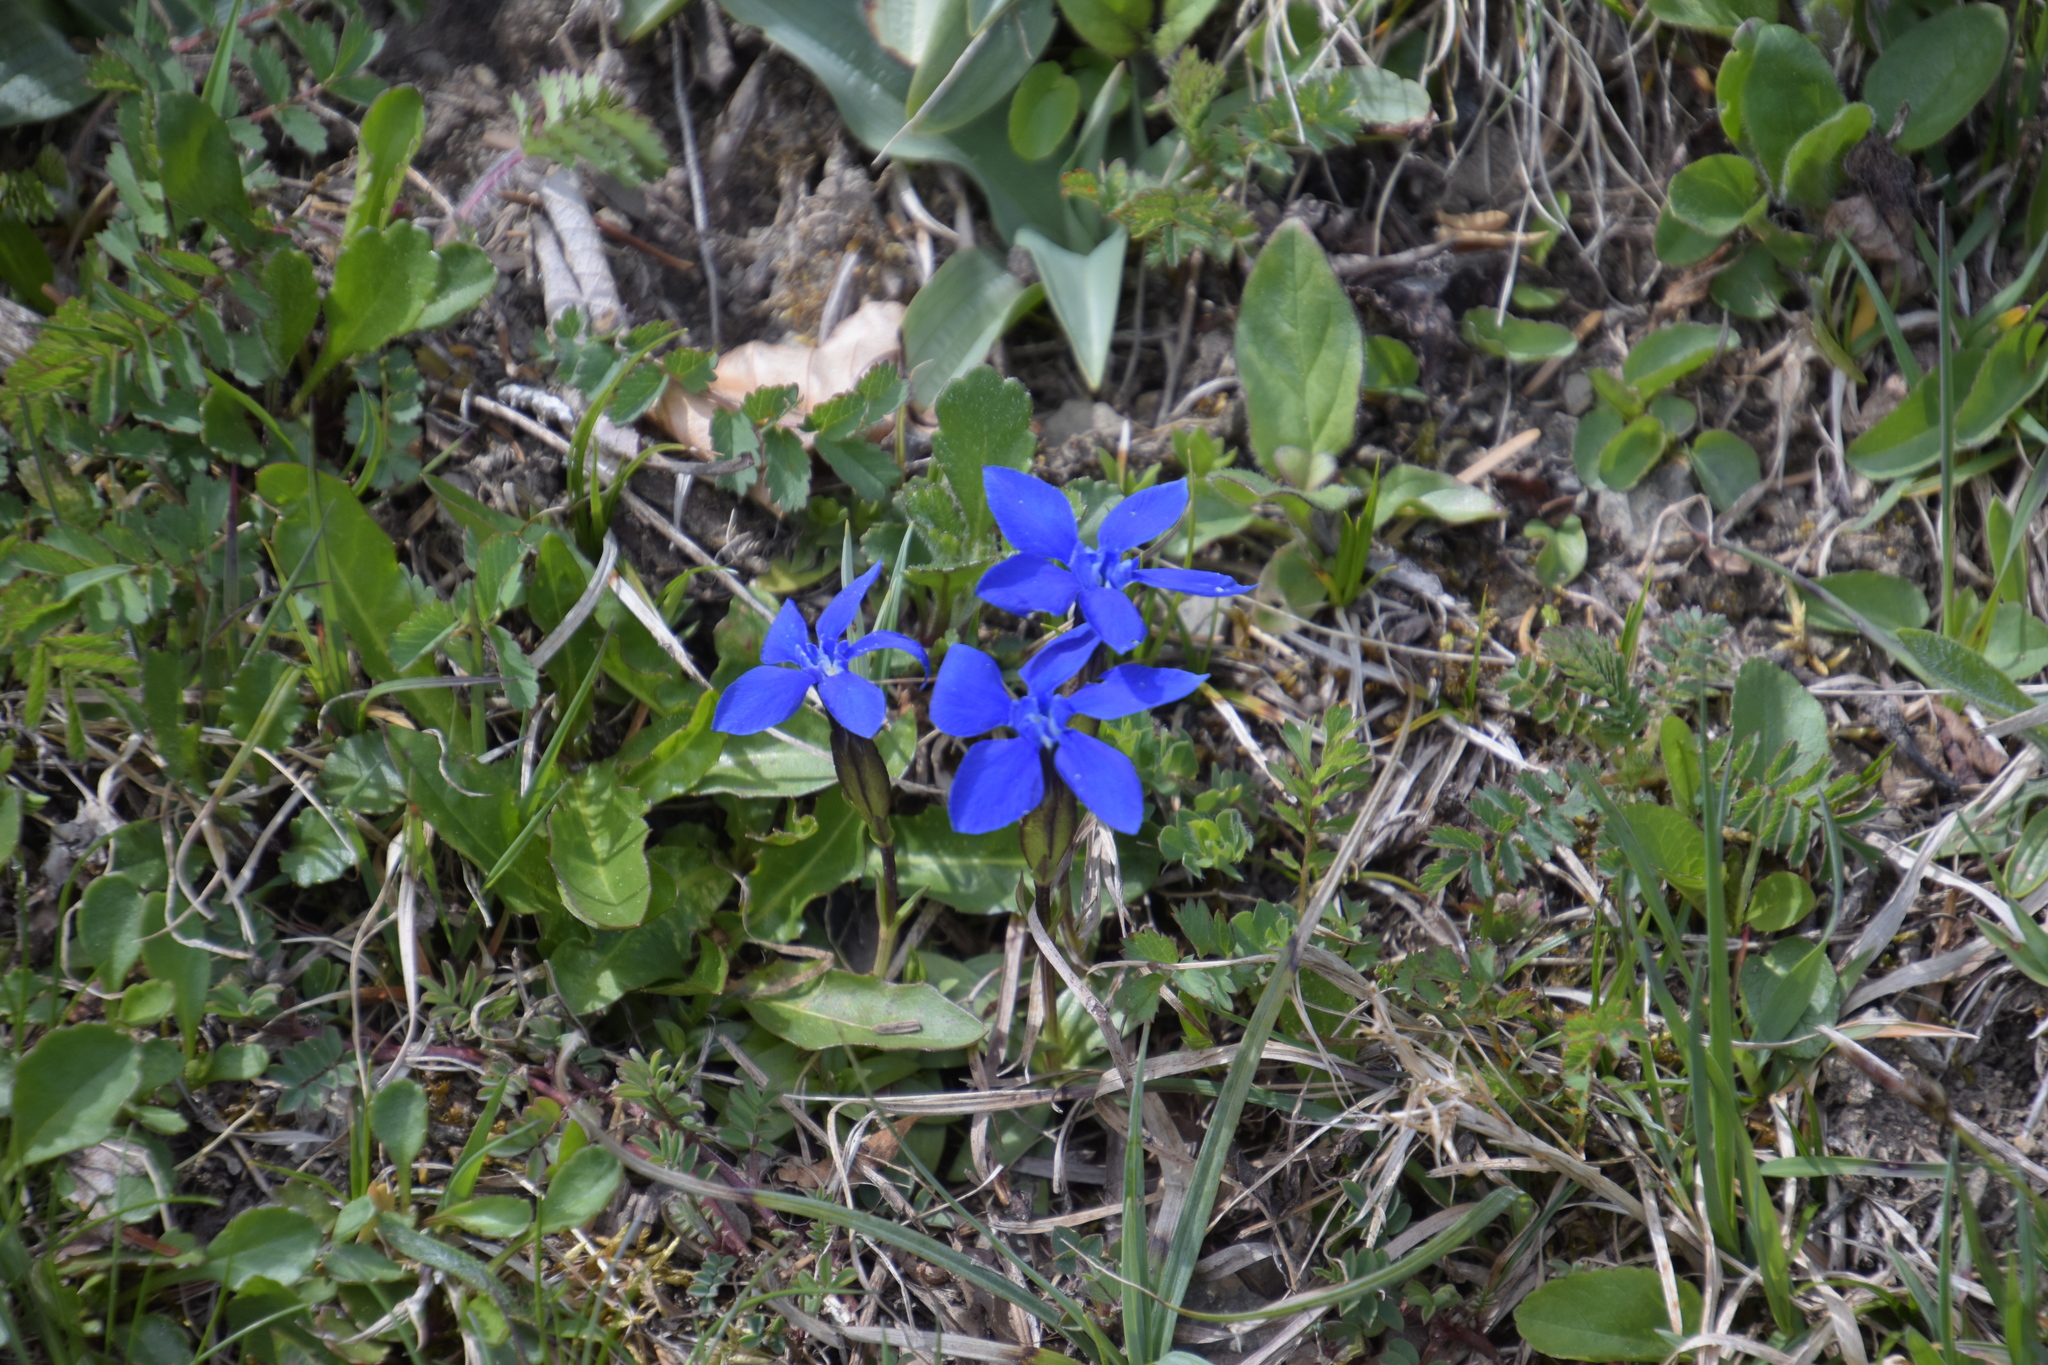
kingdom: Plantae
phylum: Tracheophyta
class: Magnoliopsida
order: Gentianales
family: Gentianaceae
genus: Gentiana
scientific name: Gentiana verna
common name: Spring gentian
